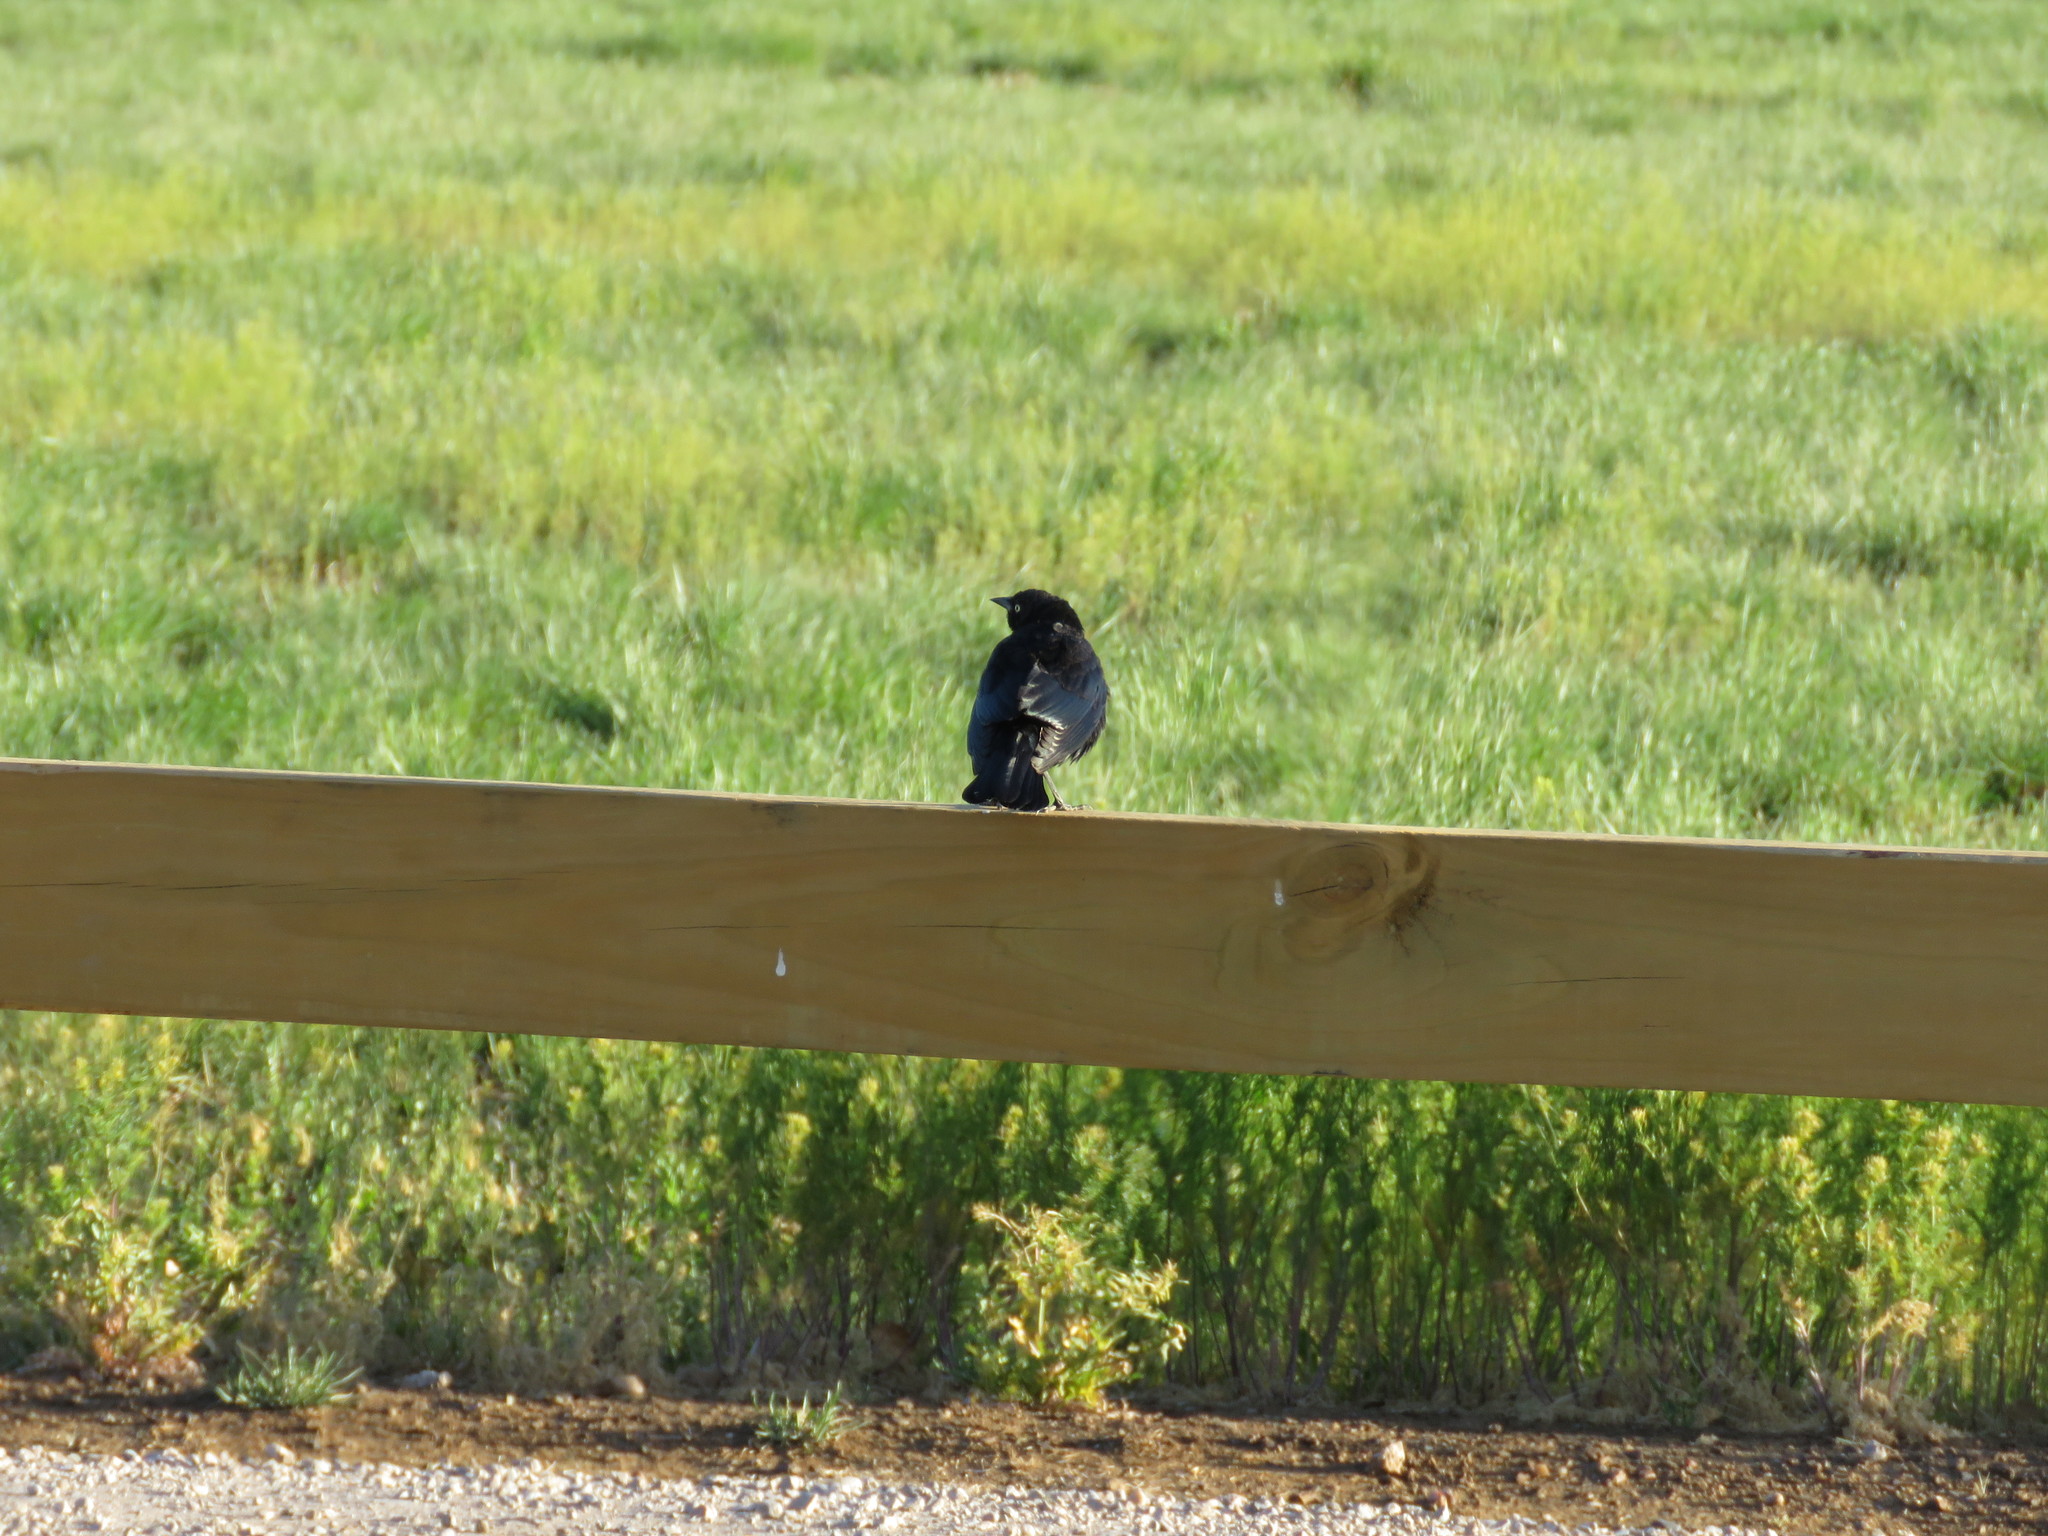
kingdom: Animalia
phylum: Chordata
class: Aves
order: Passeriformes
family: Icteridae
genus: Euphagus
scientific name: Euphagus cyanocephalus
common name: Brewer's blackbird
